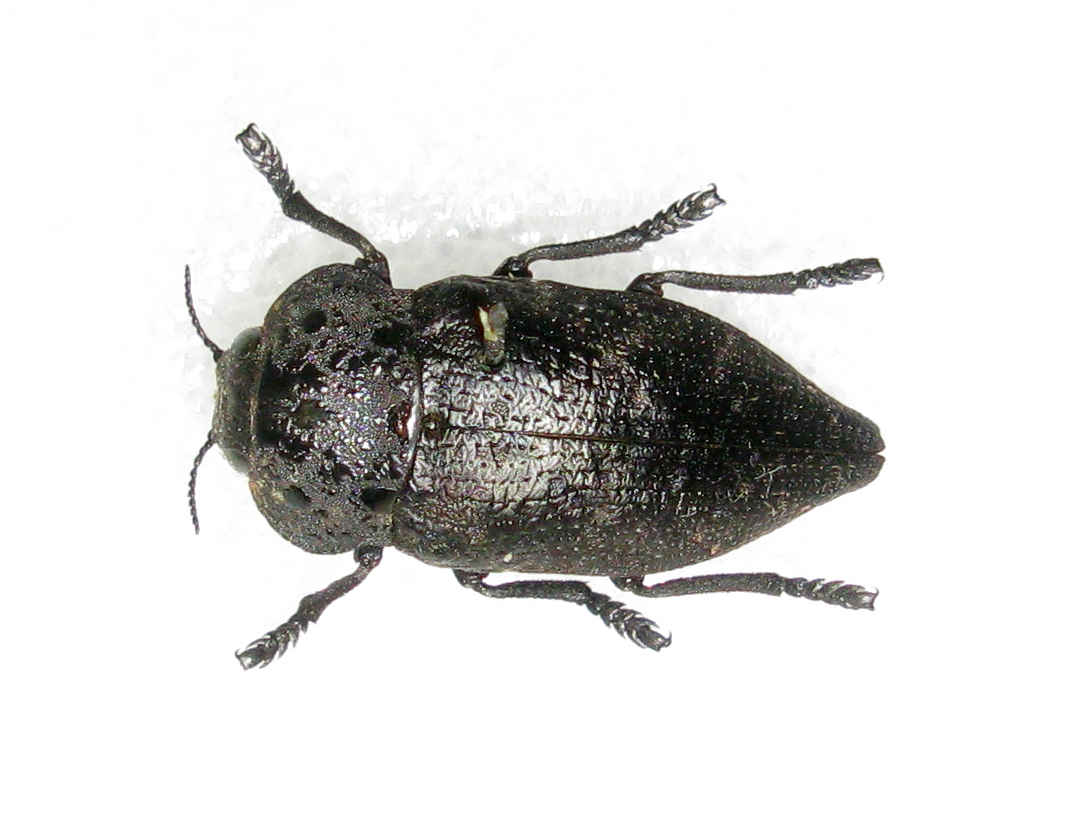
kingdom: Animalia
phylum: Arthropoda
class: Insecta
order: Coleoptera
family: Buprestidae
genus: Capnodis
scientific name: Capnodis tenebrionis
